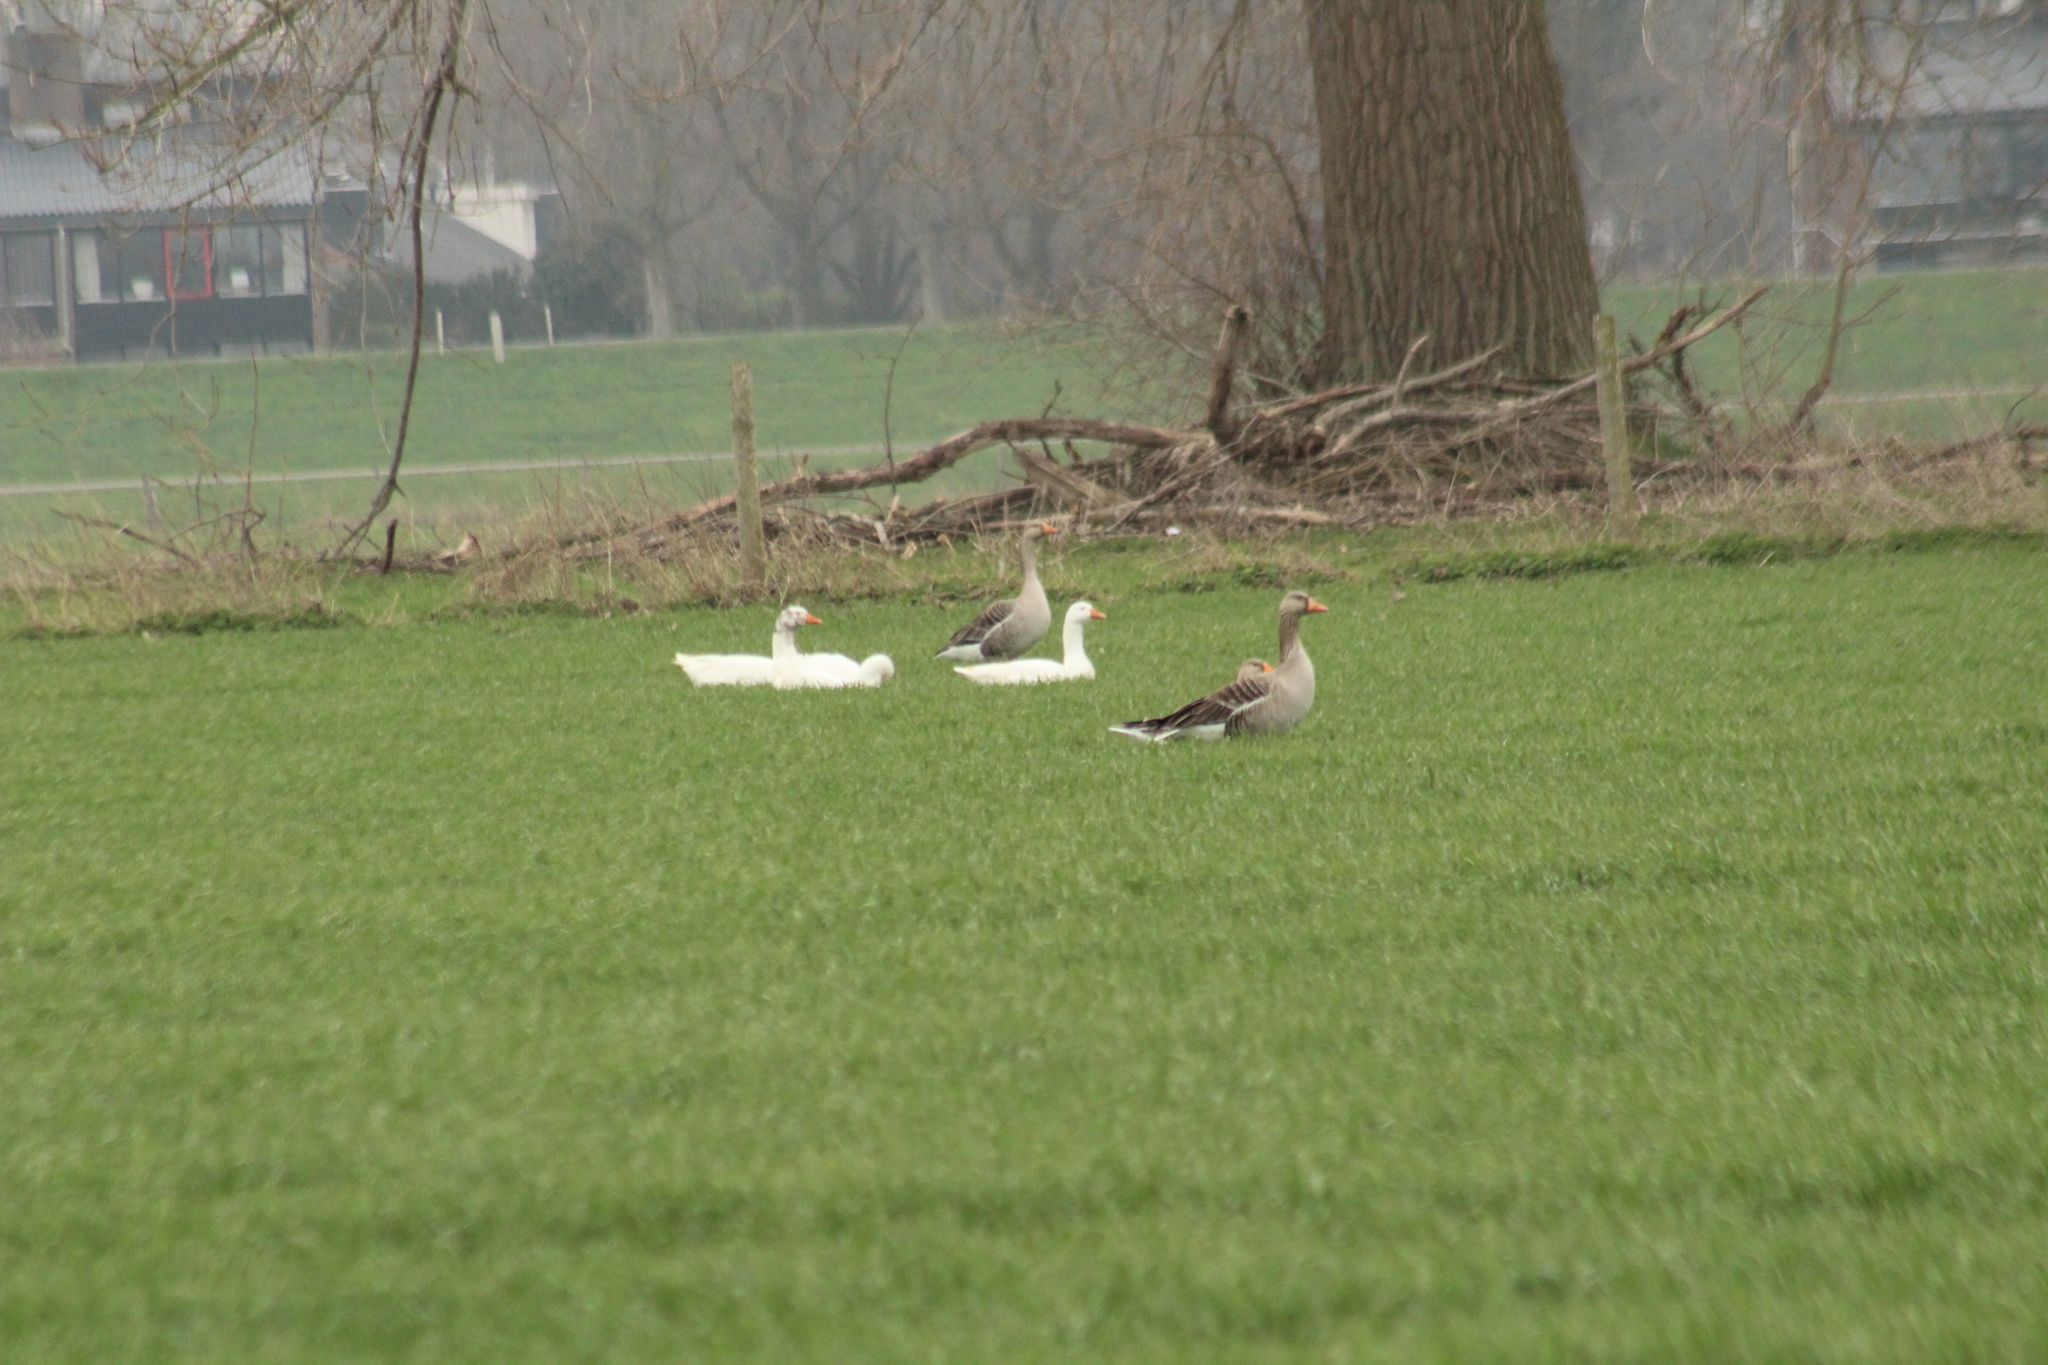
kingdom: Animalia
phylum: Chordata
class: Aves
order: Anseriformes
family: Anatidae
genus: Anser
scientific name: Anser anser
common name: Greylag goose
